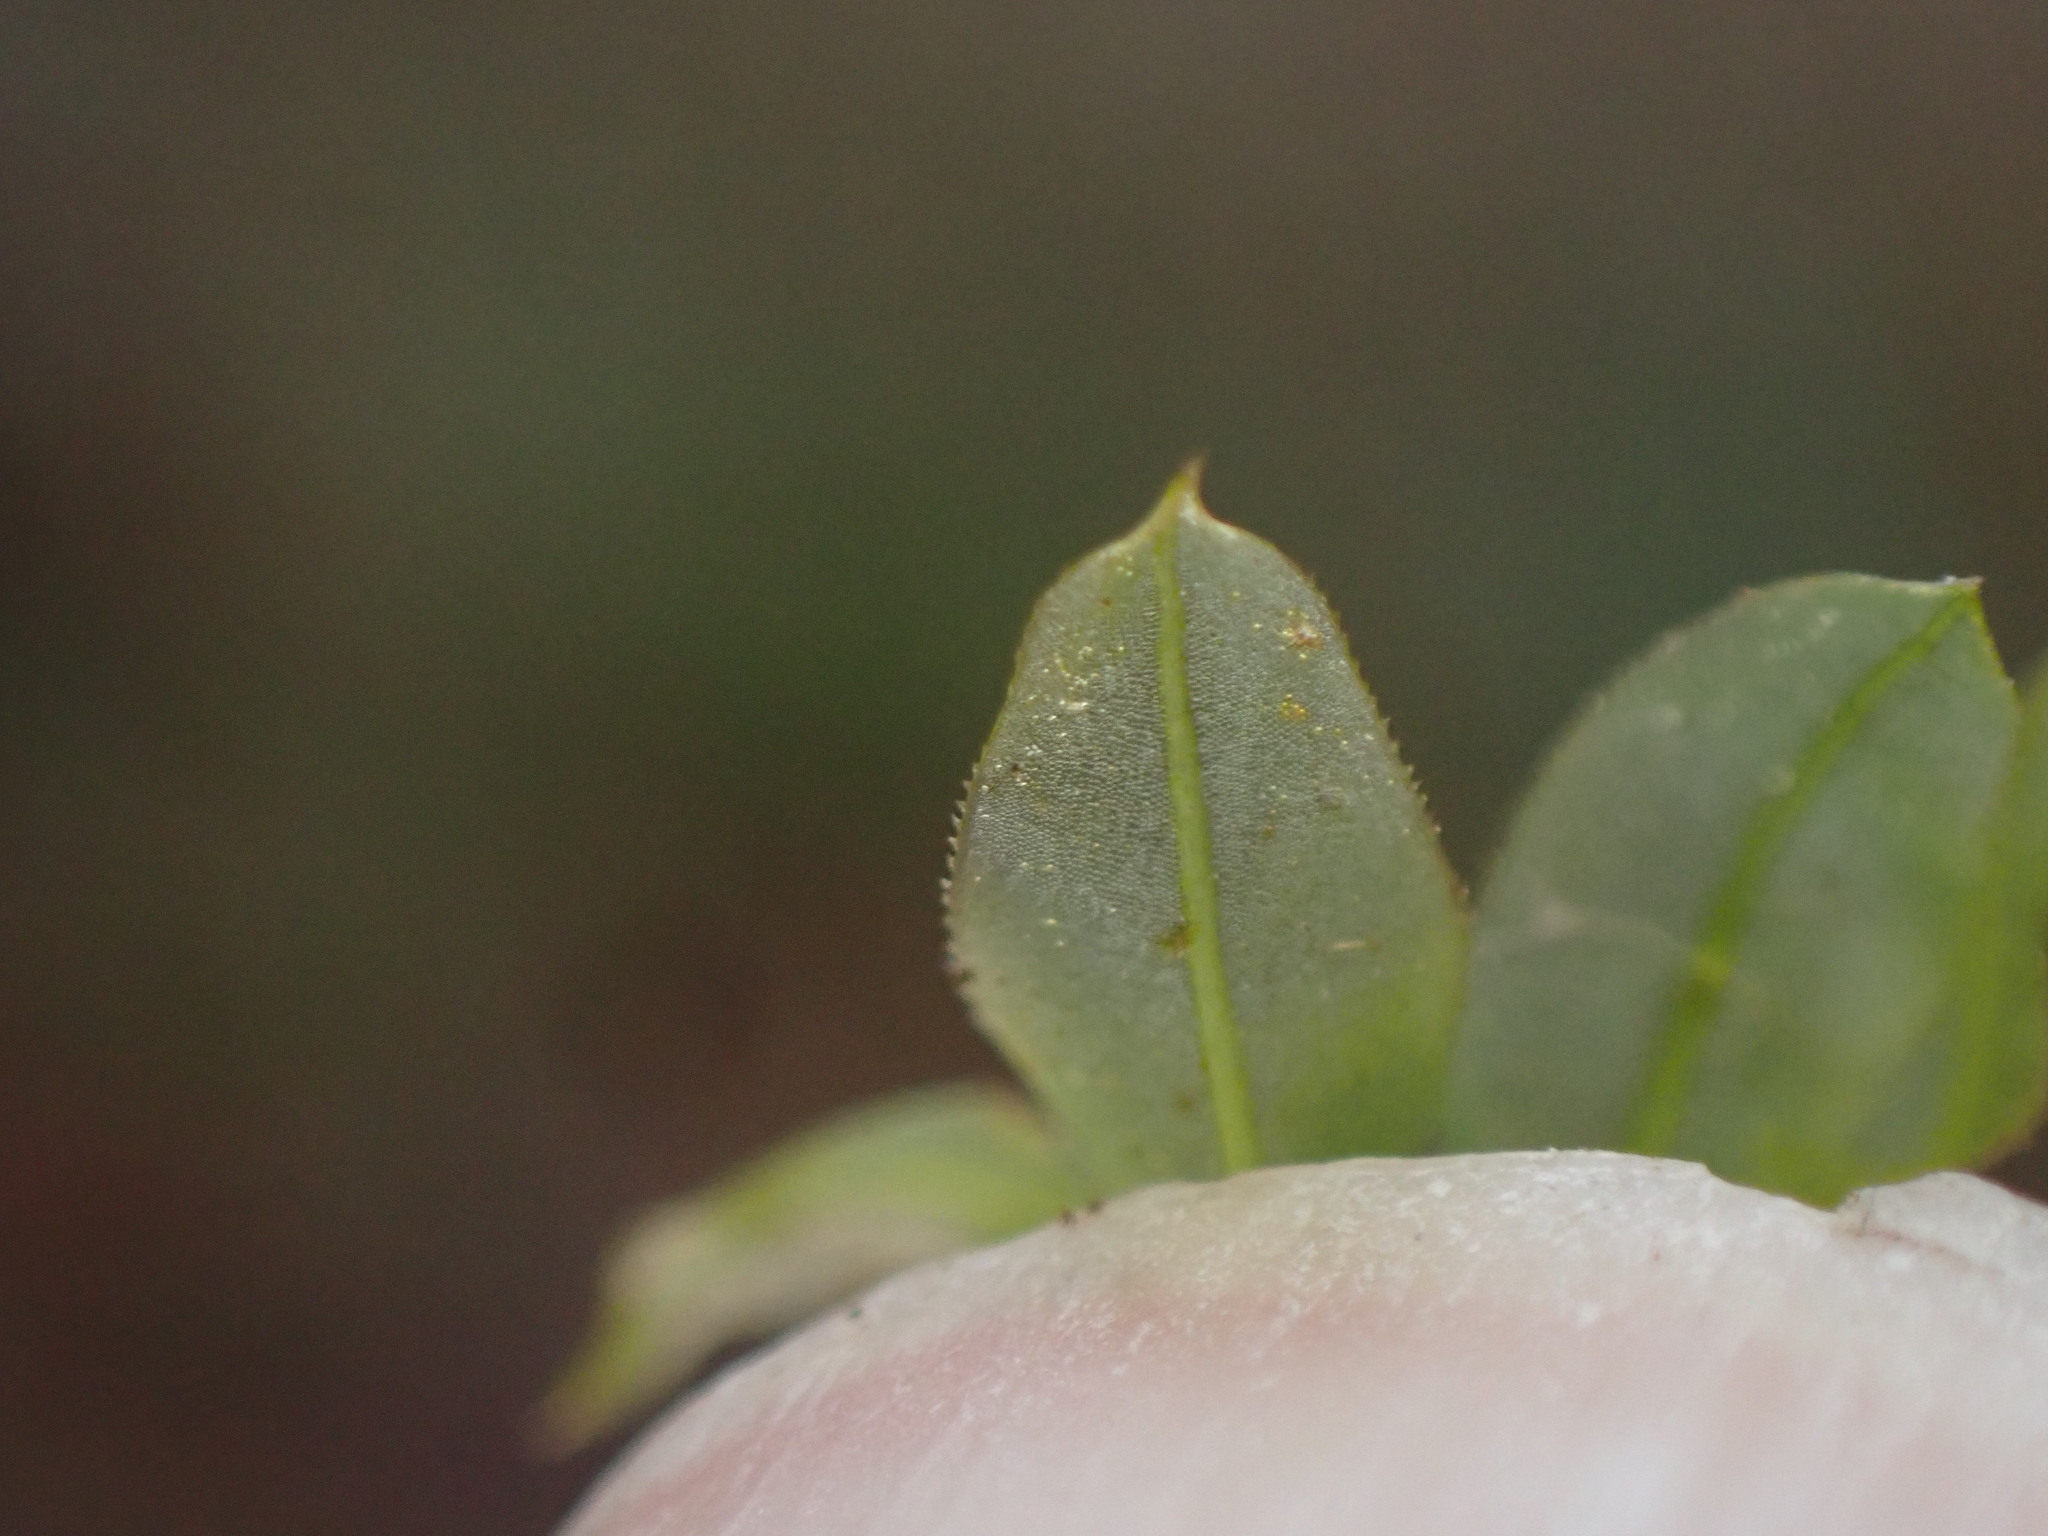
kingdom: Plantae
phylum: Bryophyta
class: Bryopsida
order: Bryales
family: Mniaceae
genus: Plagiomnium
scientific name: Plagiomnium insigne
